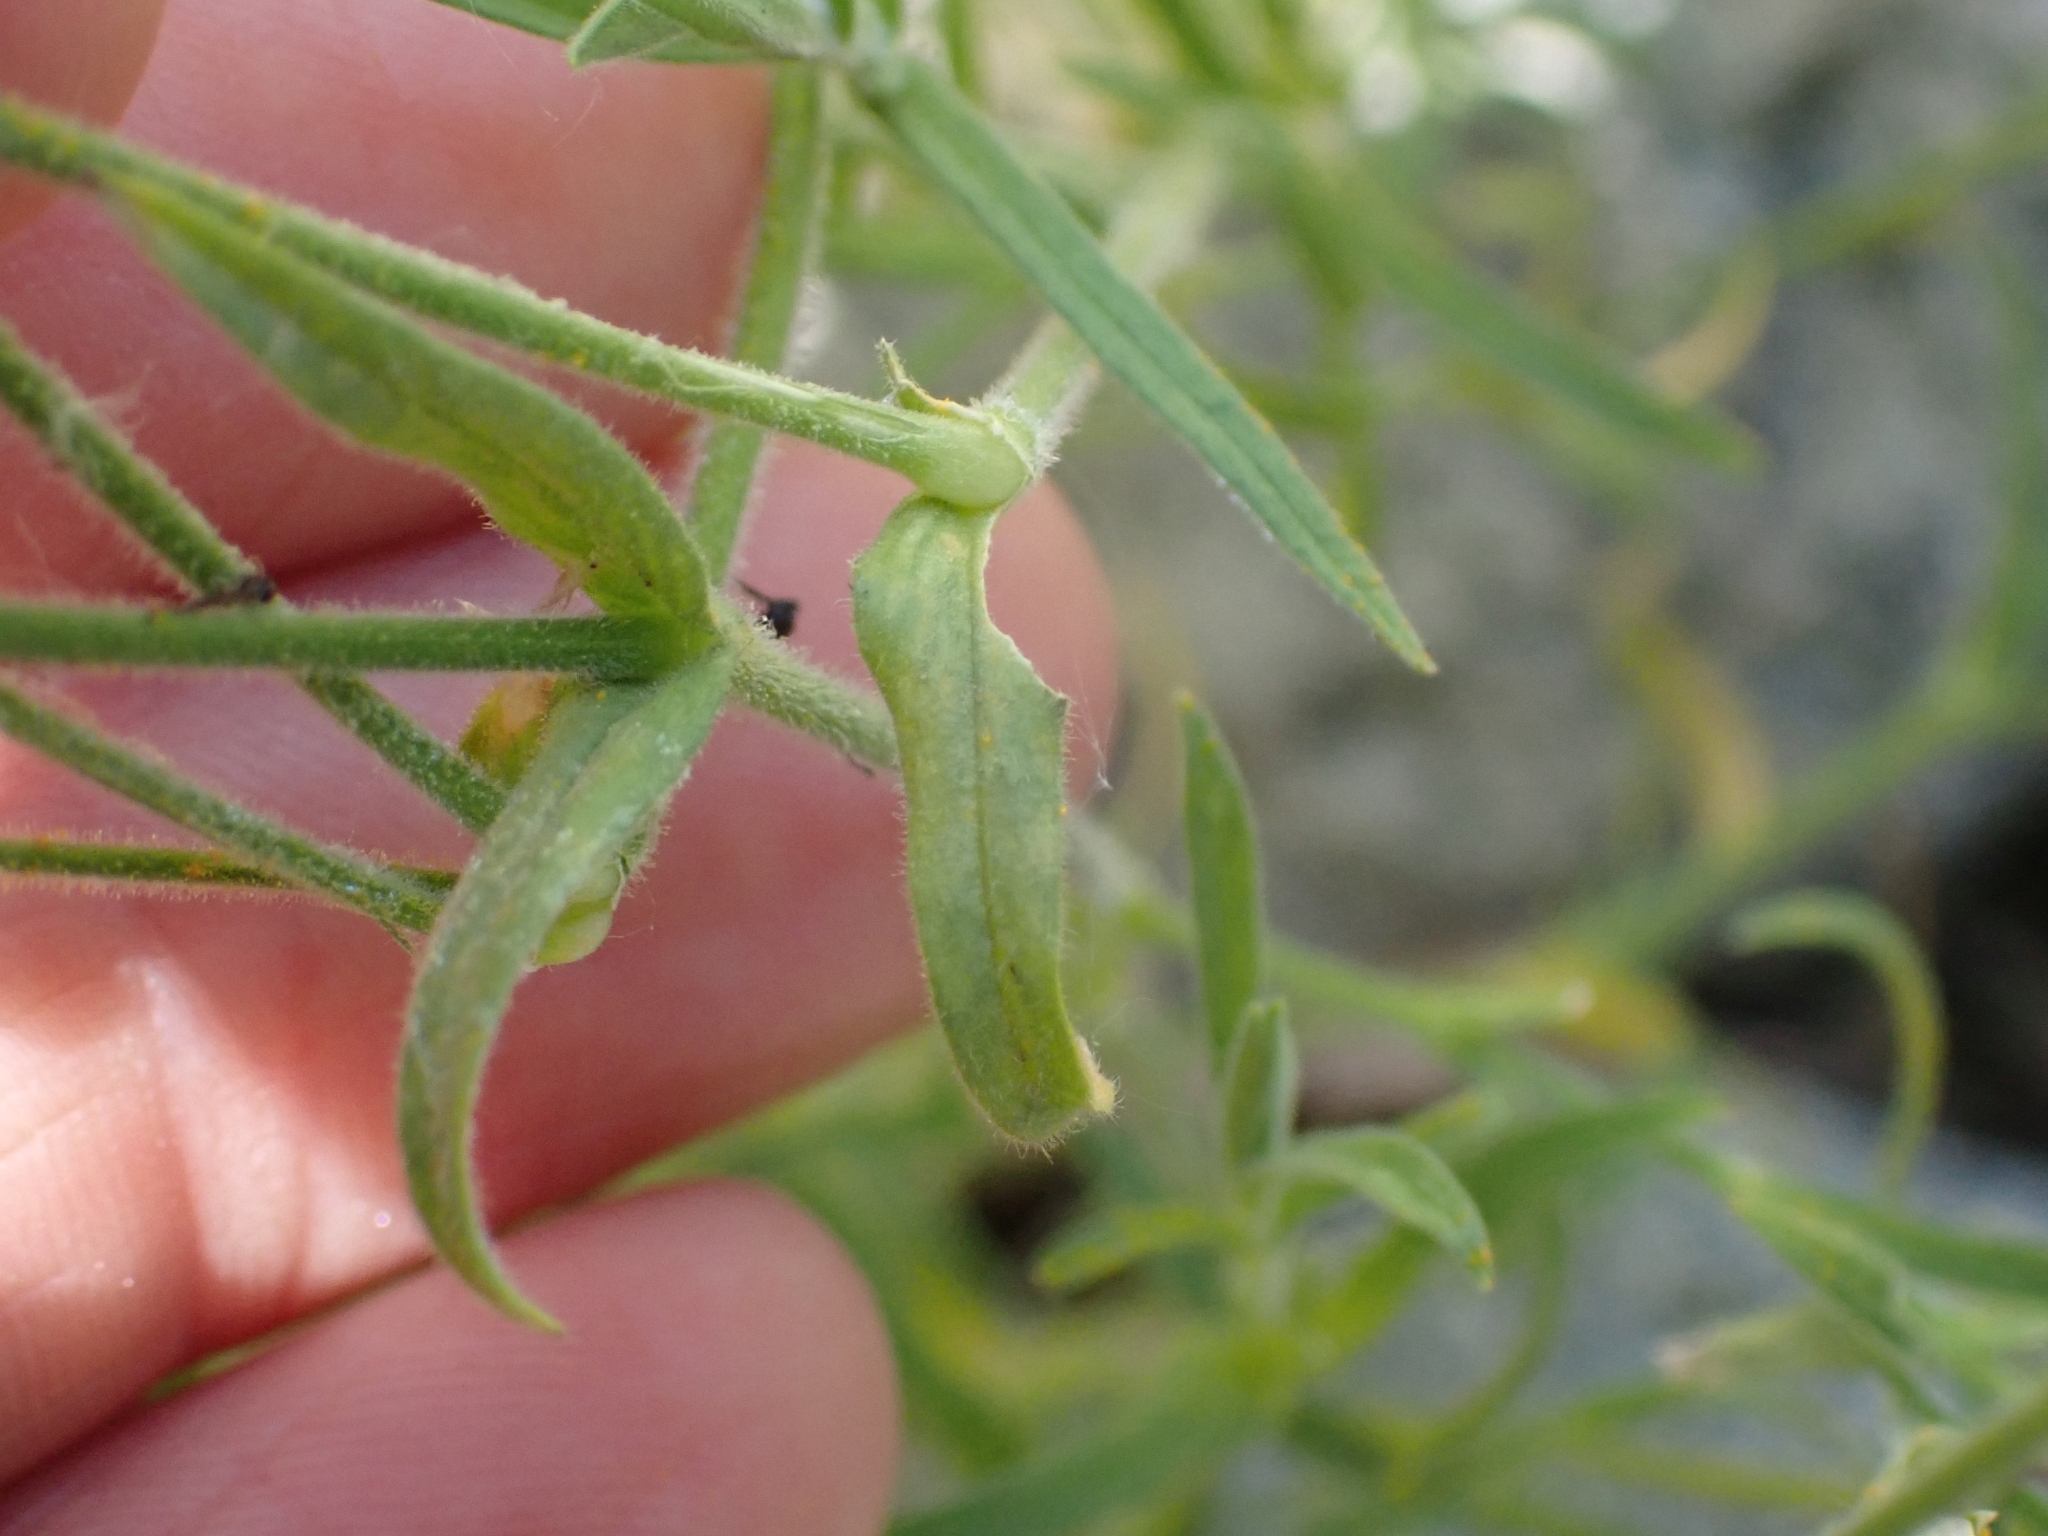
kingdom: Plantae
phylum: Tracheophyta
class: Magnoliopsida
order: Caryophyllales
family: Caryophyllaceae
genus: Cerastium
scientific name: Cerastium arvense
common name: Field mouse-ear
